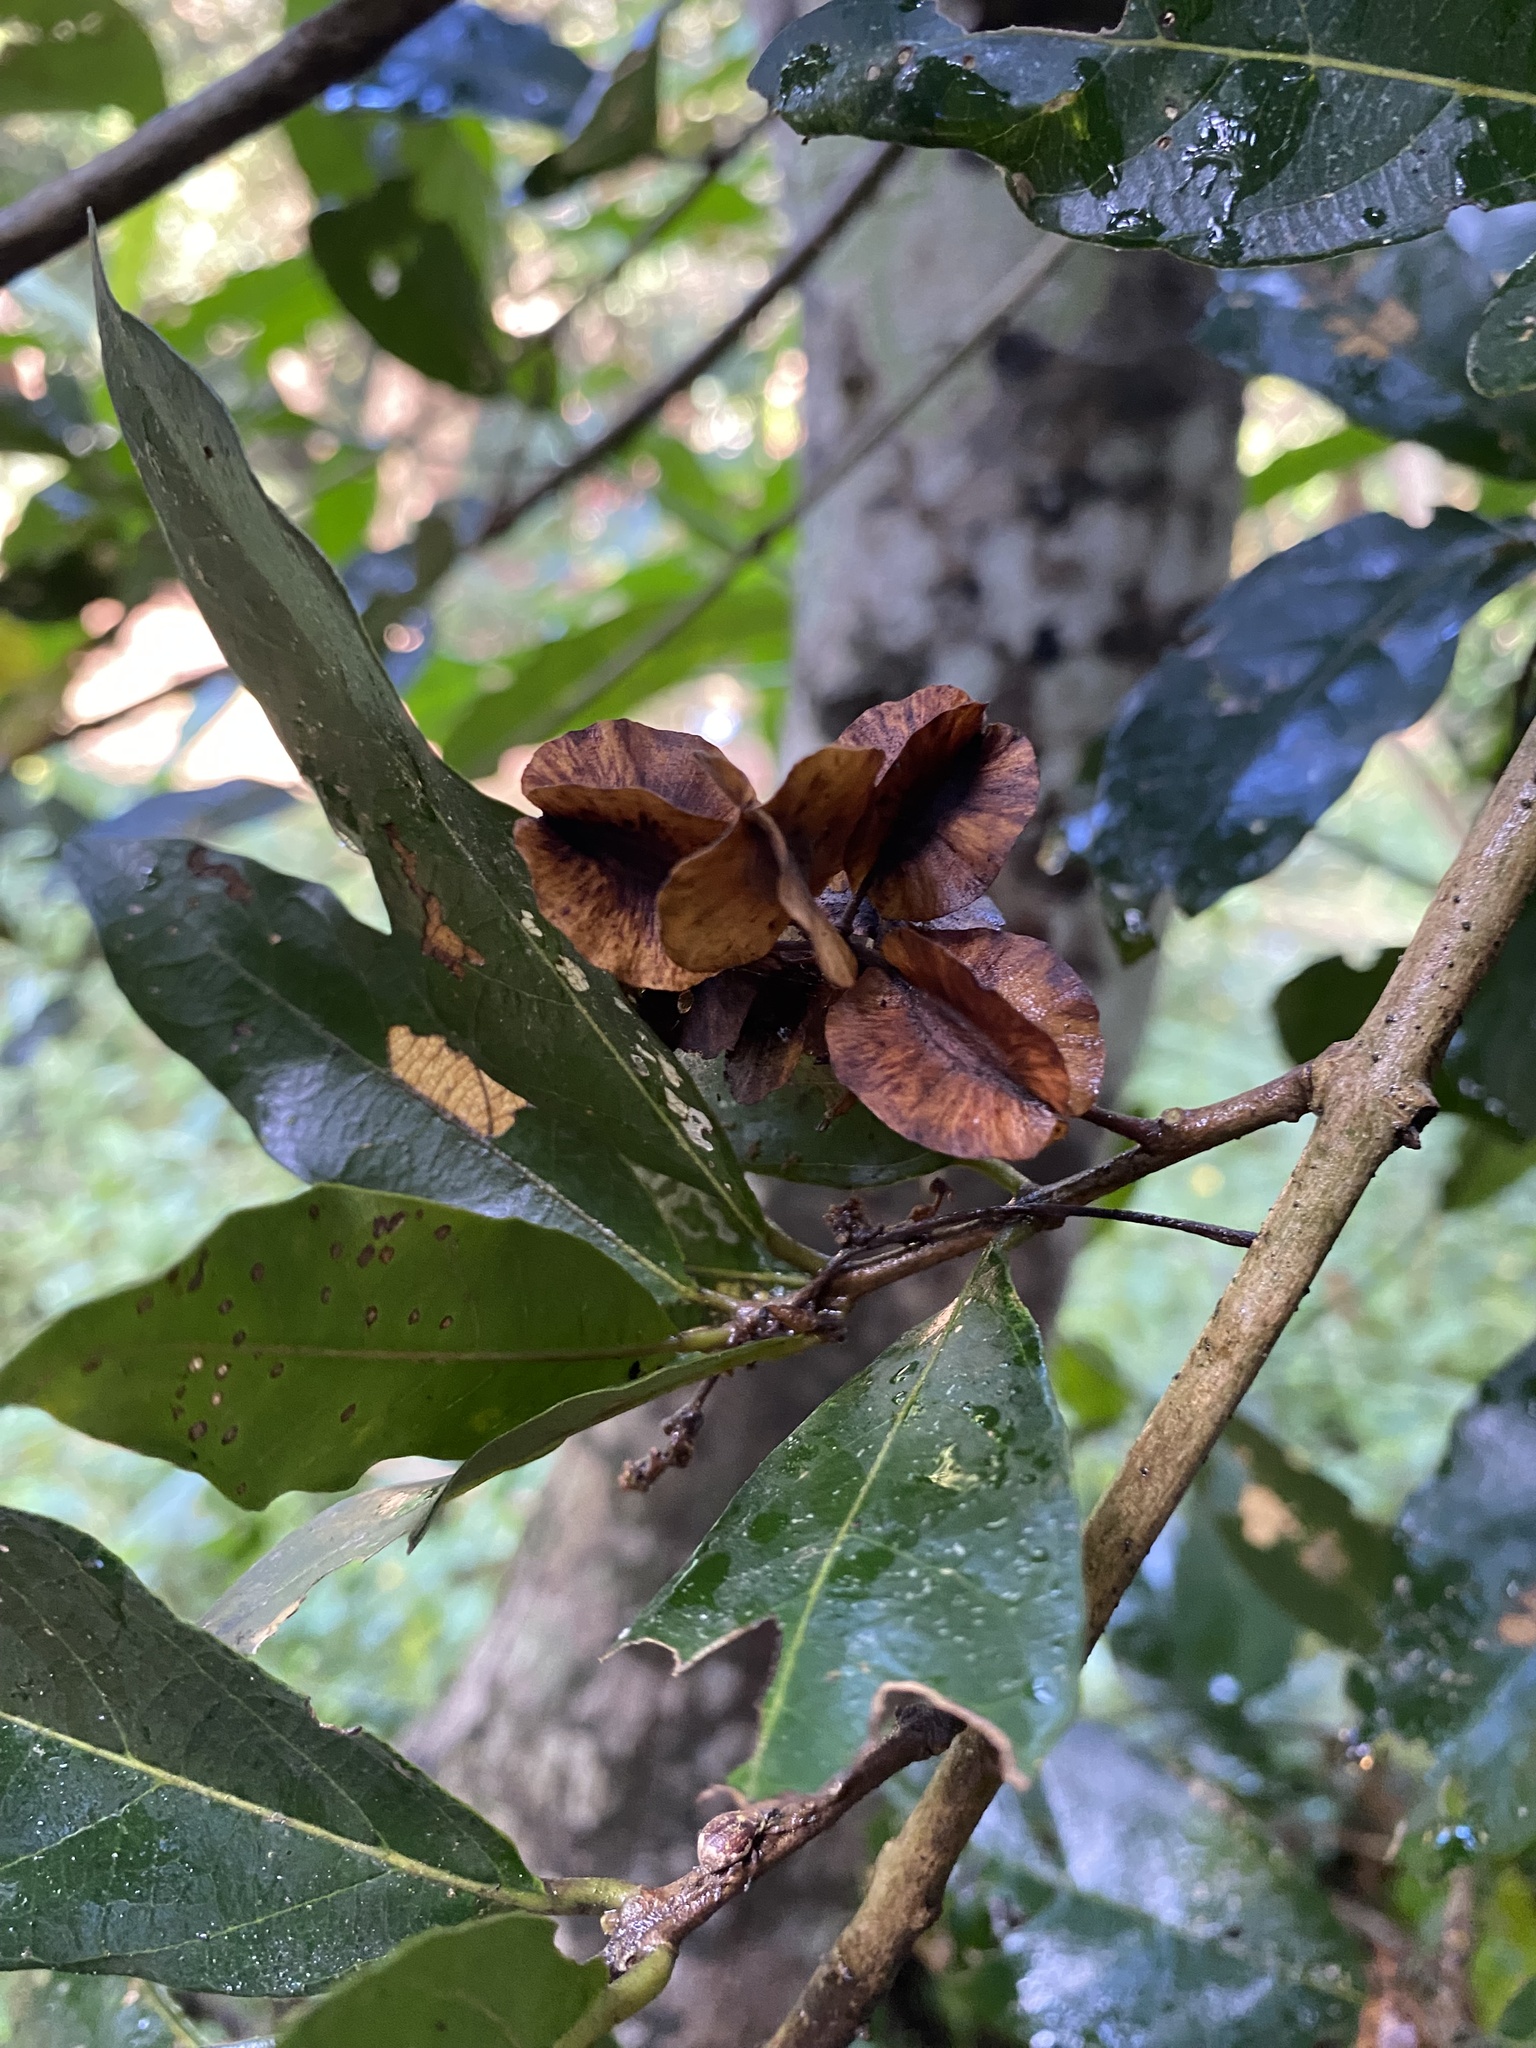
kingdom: Plantae
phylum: Tracheophyta
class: Magnoliopsida
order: Myrtales
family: Combretaceae
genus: Combretum
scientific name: Combretum kraussii
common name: Forest bushwillow
